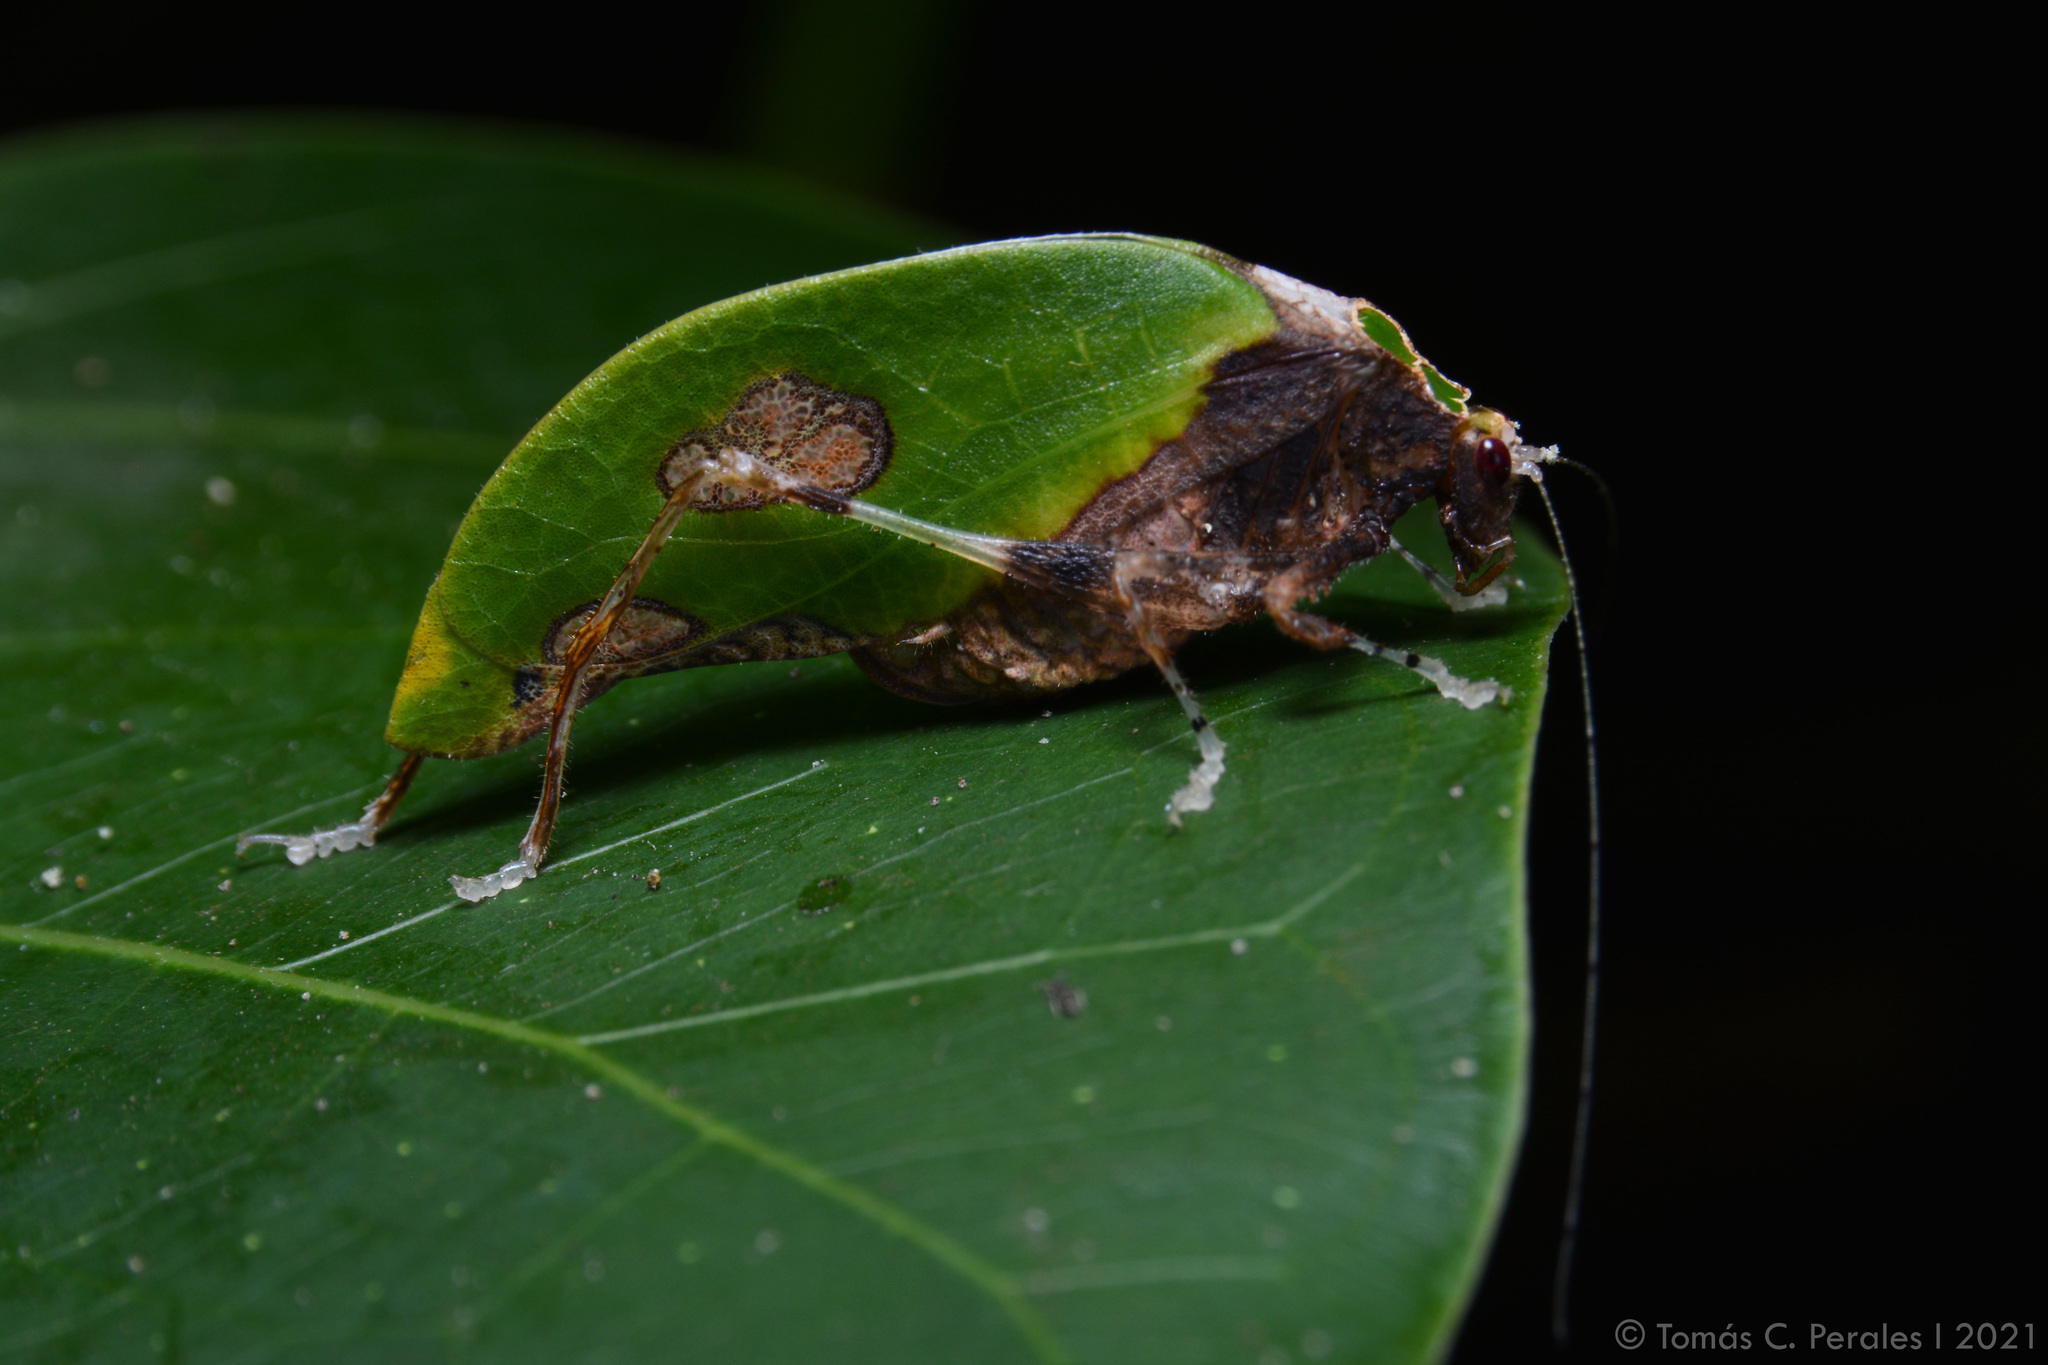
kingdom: Animalia
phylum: Arthropoda
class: Insecta
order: Orthoptera
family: Tettigoniidae
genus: Pycnopalpa
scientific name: Pycnopalpa bicordata
